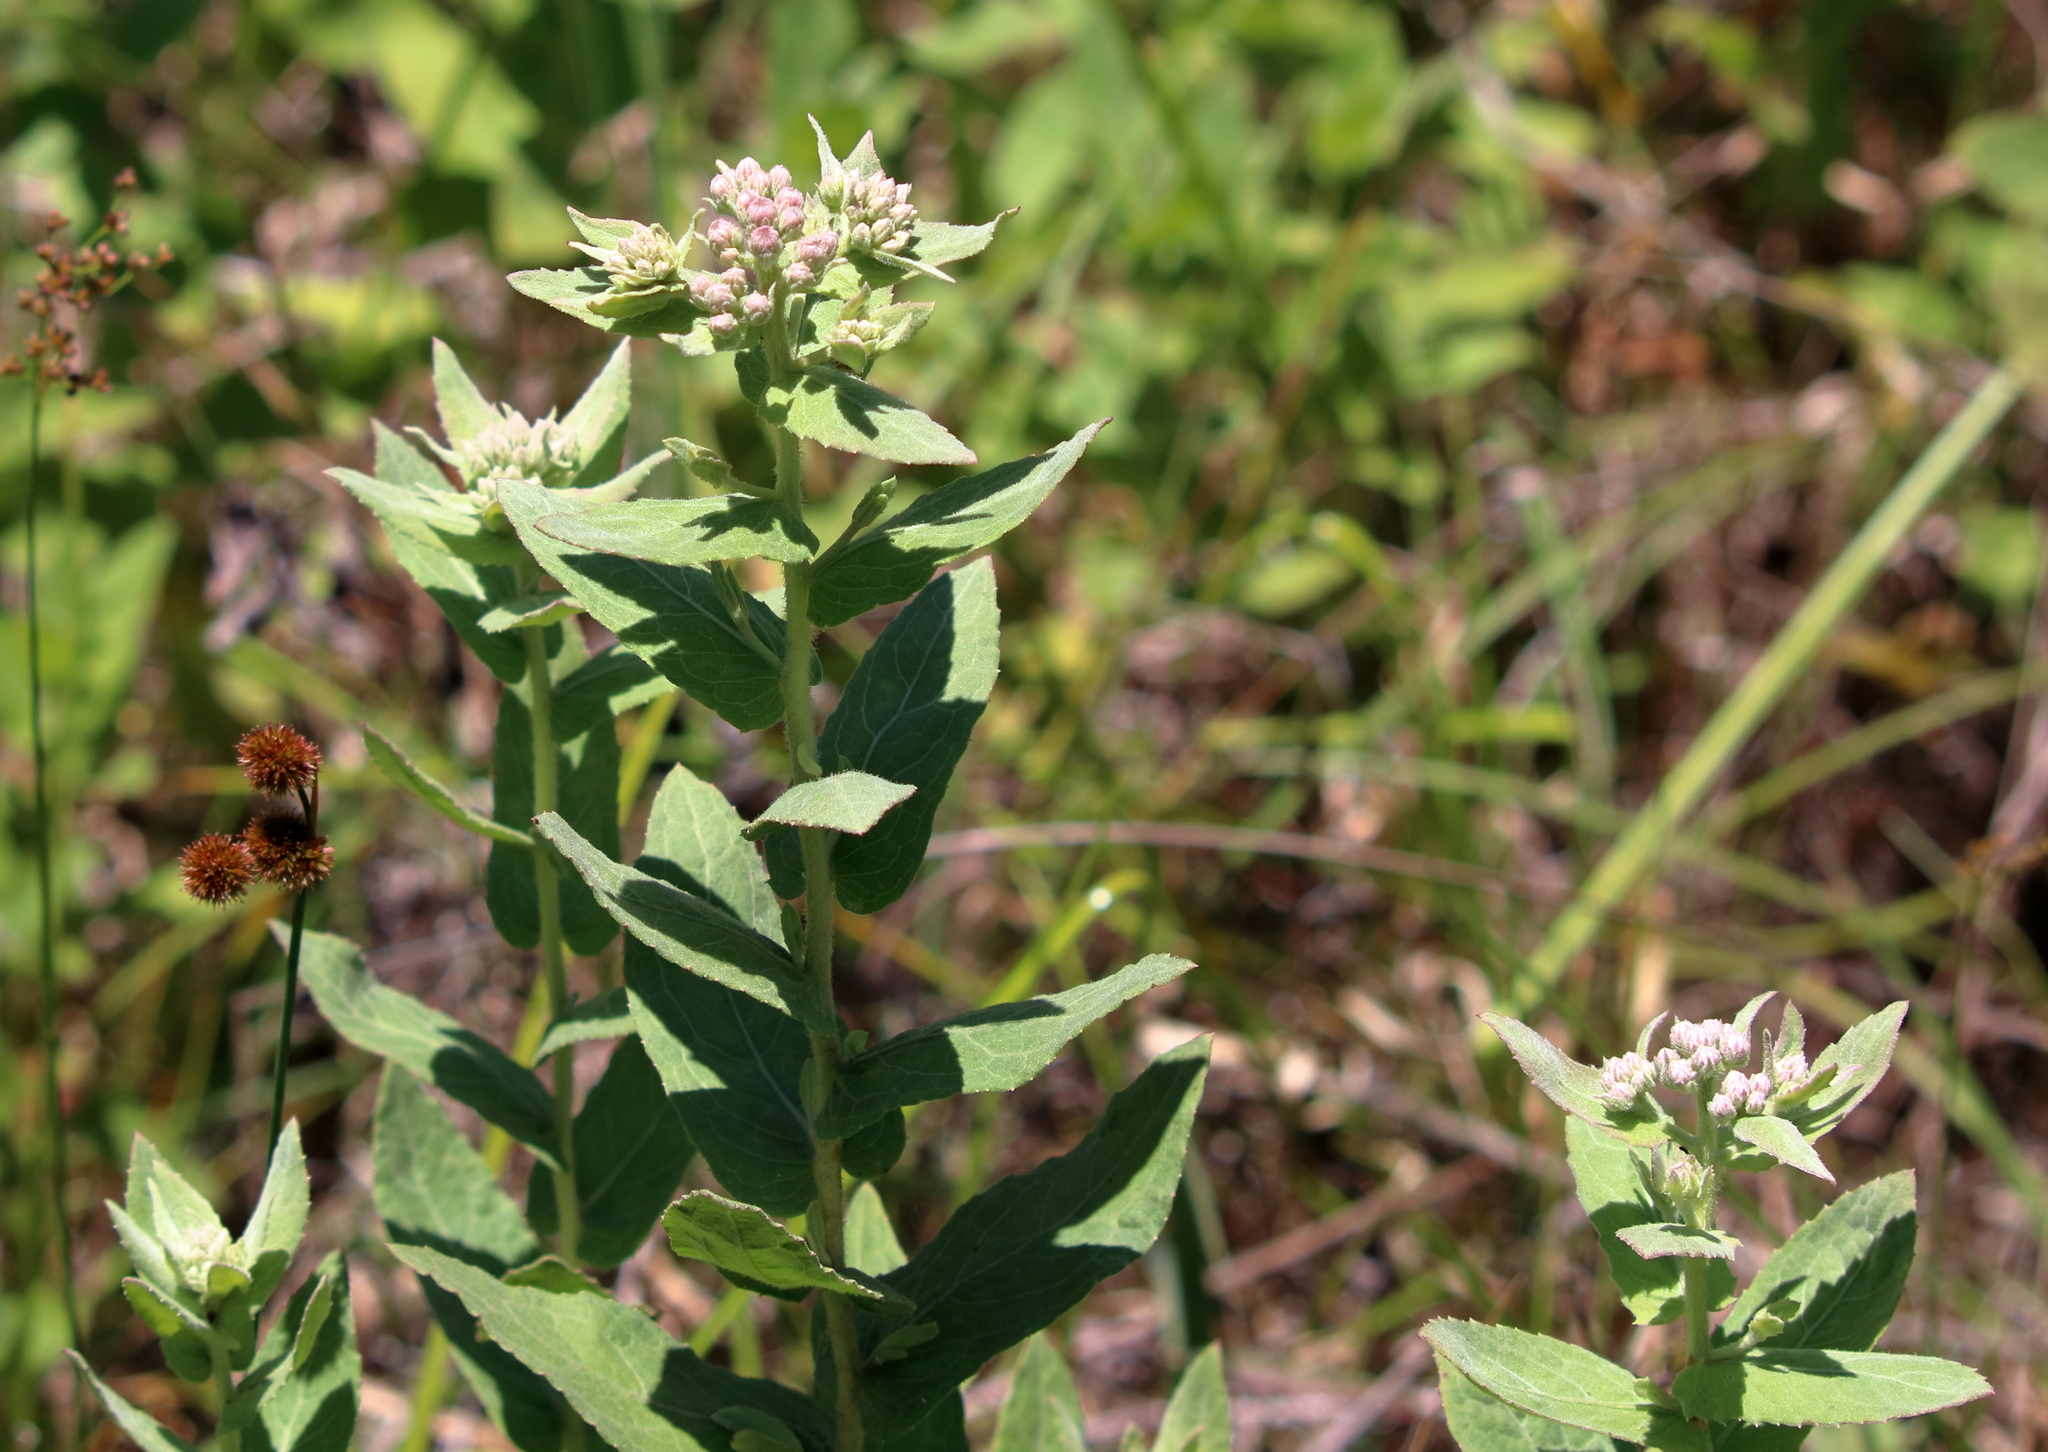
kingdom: Plantae
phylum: Tracheophyta
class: Magnoliopsida
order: Asterales
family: Asteraceae
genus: Pluchea
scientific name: Pluchea baccharis
